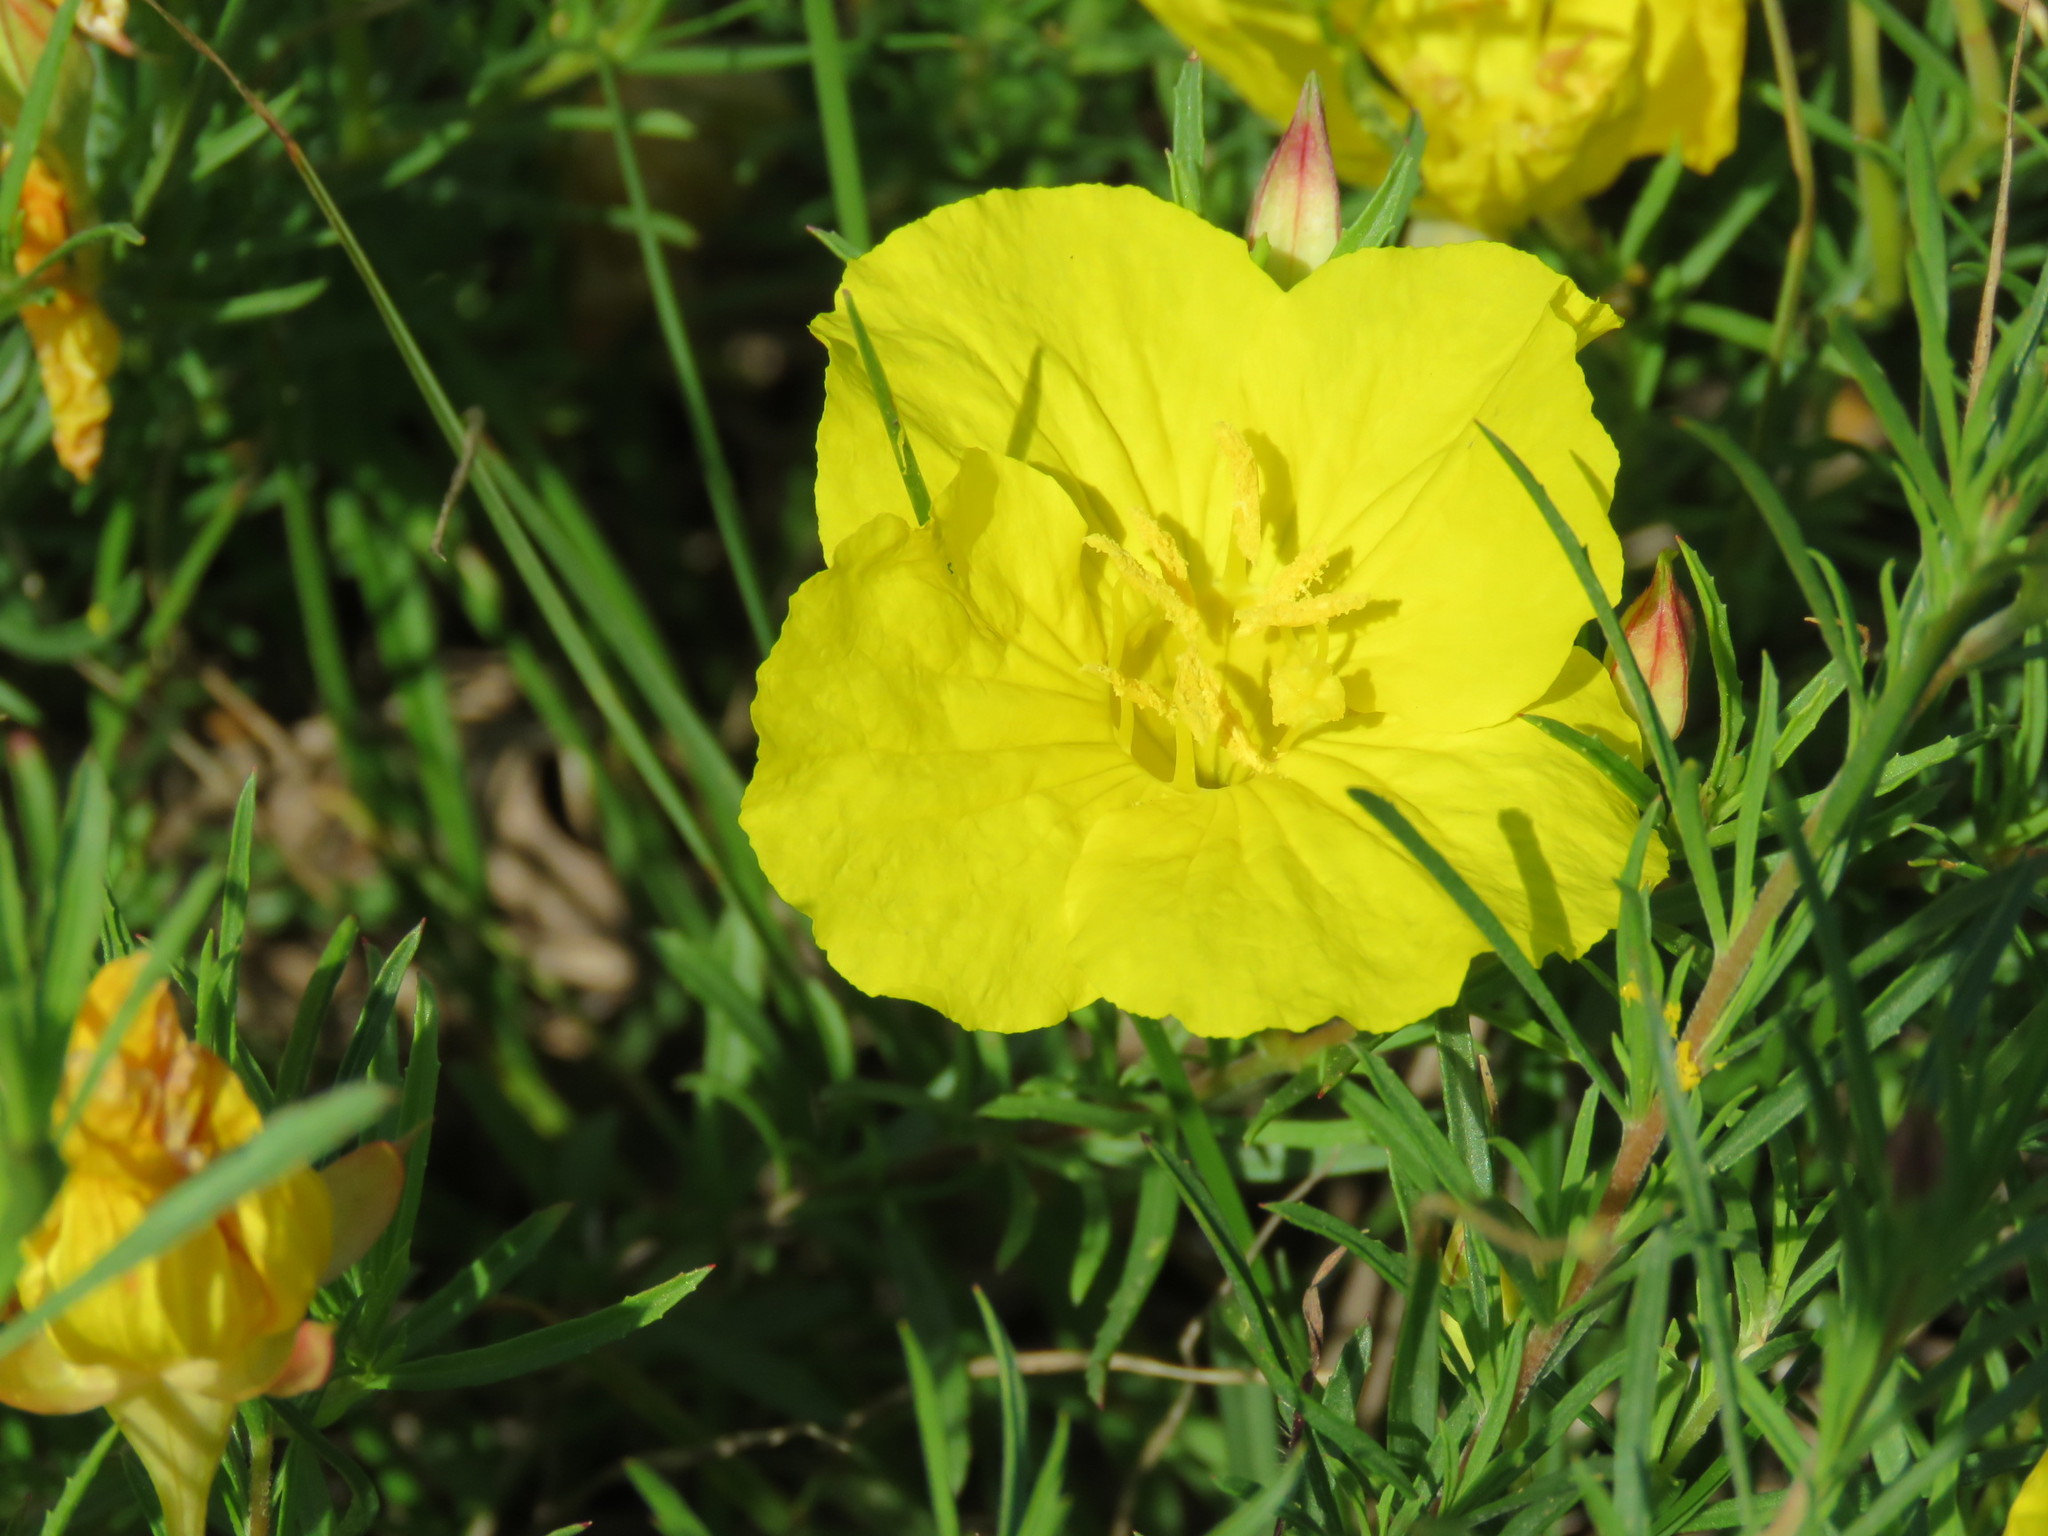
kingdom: Plantae
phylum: Tracheophyta
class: Magnoliopsida
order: Myrtales
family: Onagraceae
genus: Oenothera
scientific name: Oenothera
